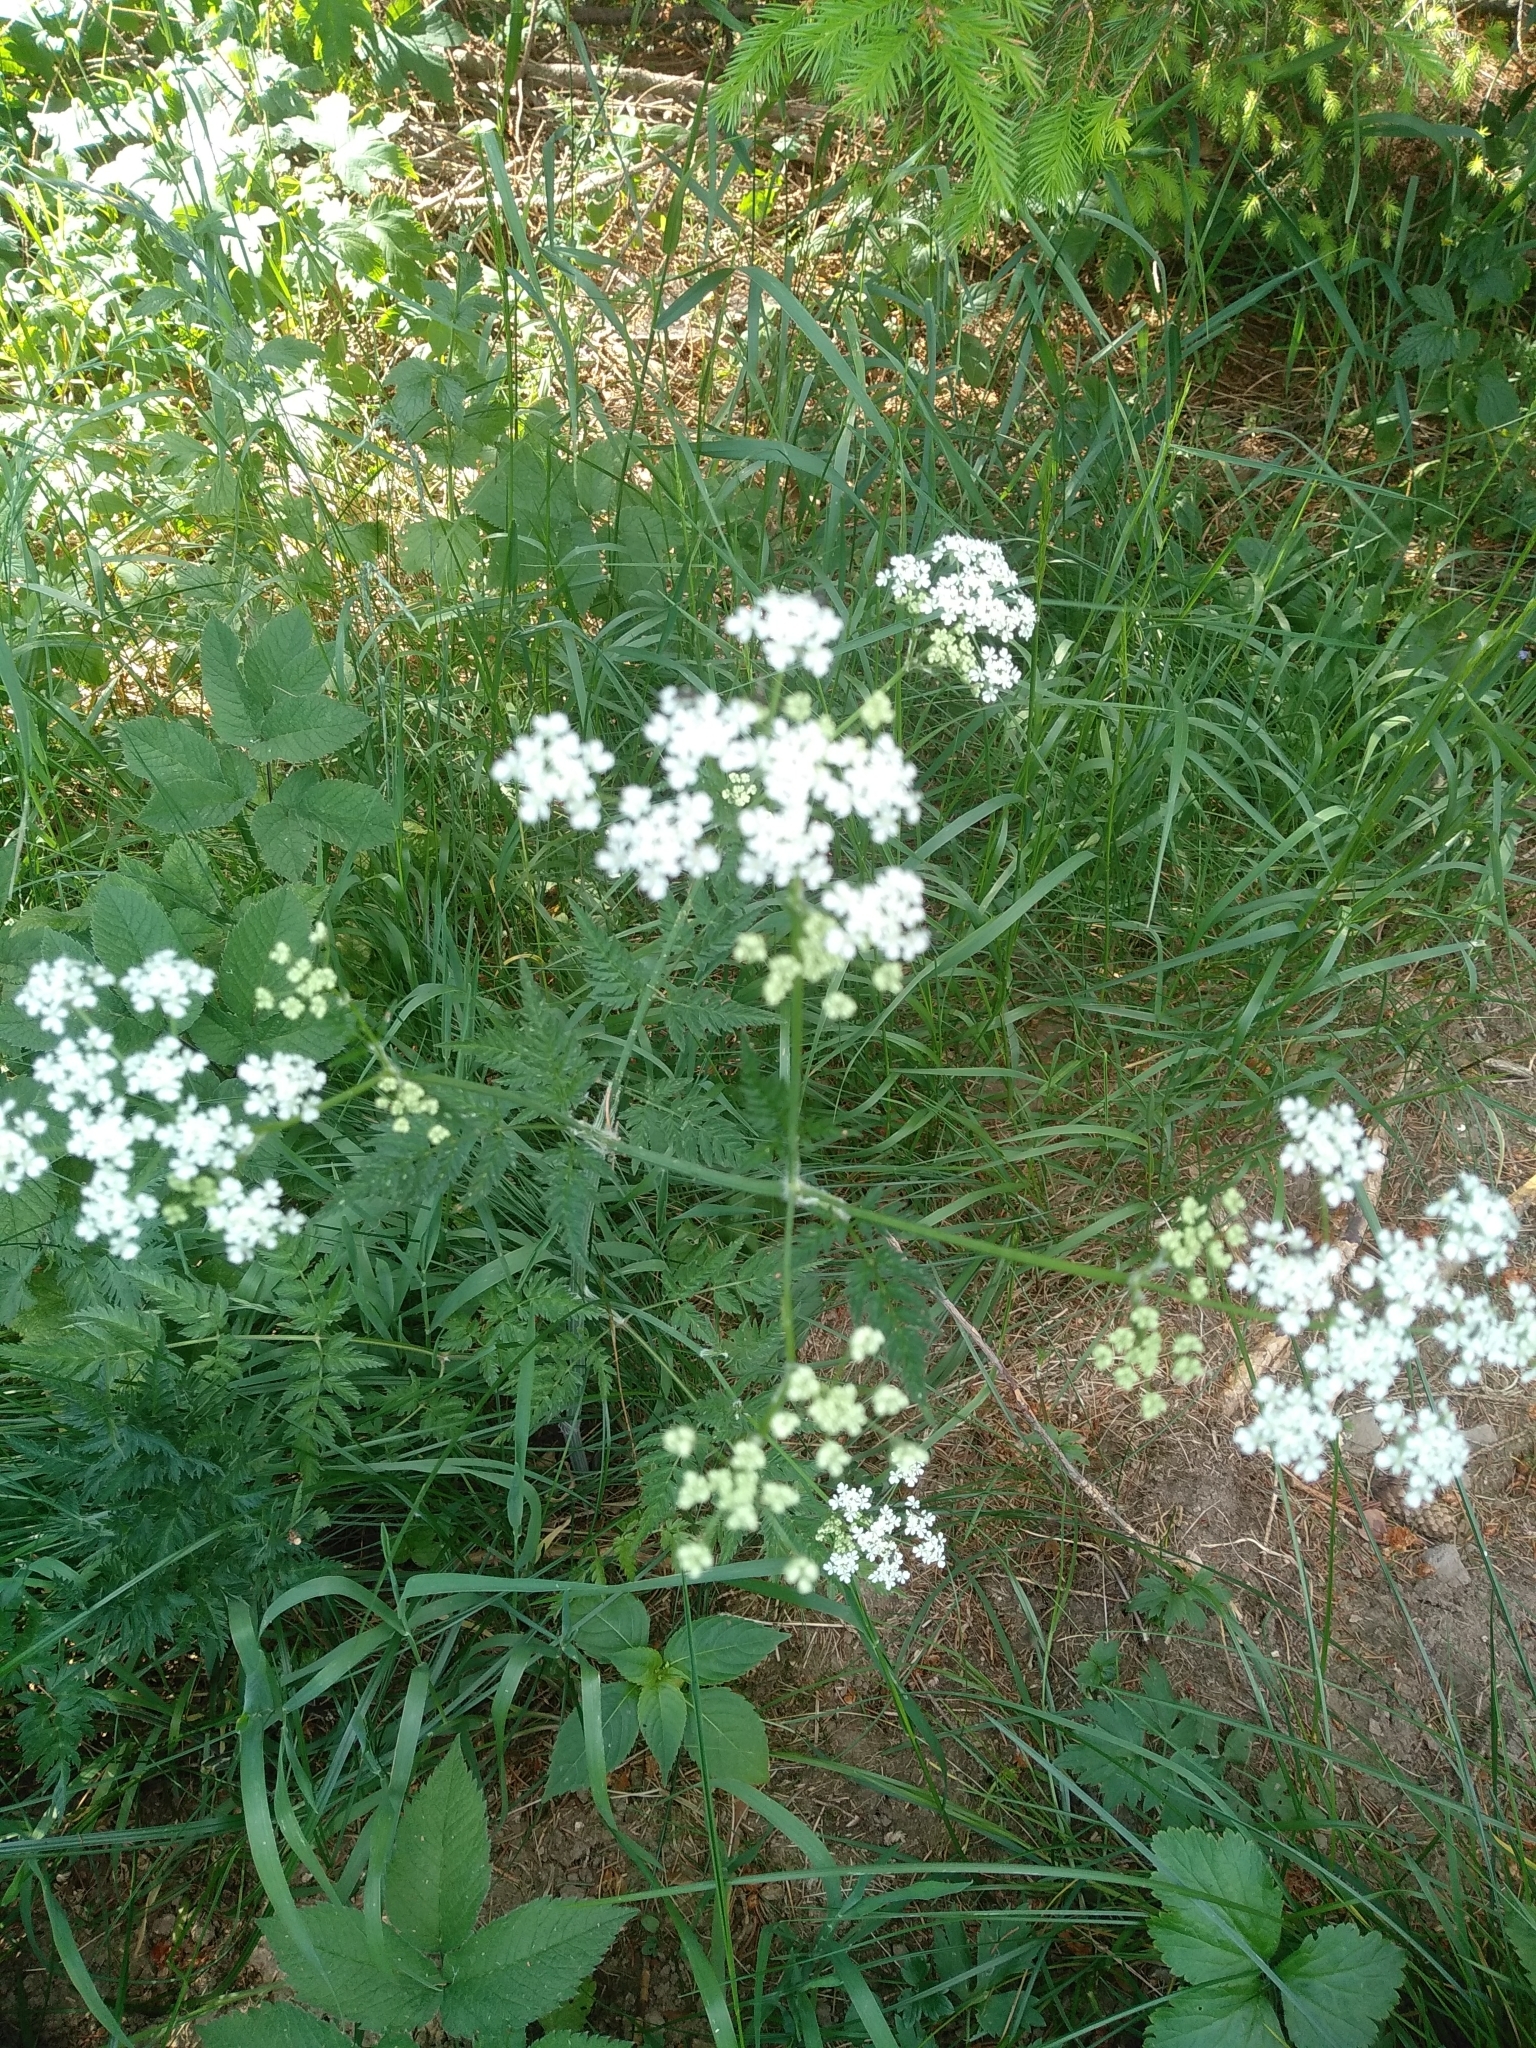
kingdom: Plantae
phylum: Tracheophyta
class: Magnoliopsida
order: Apiales
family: Apiaceae
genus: Anthriscus
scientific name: Anthriscus sylvestris
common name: Cow parsley
